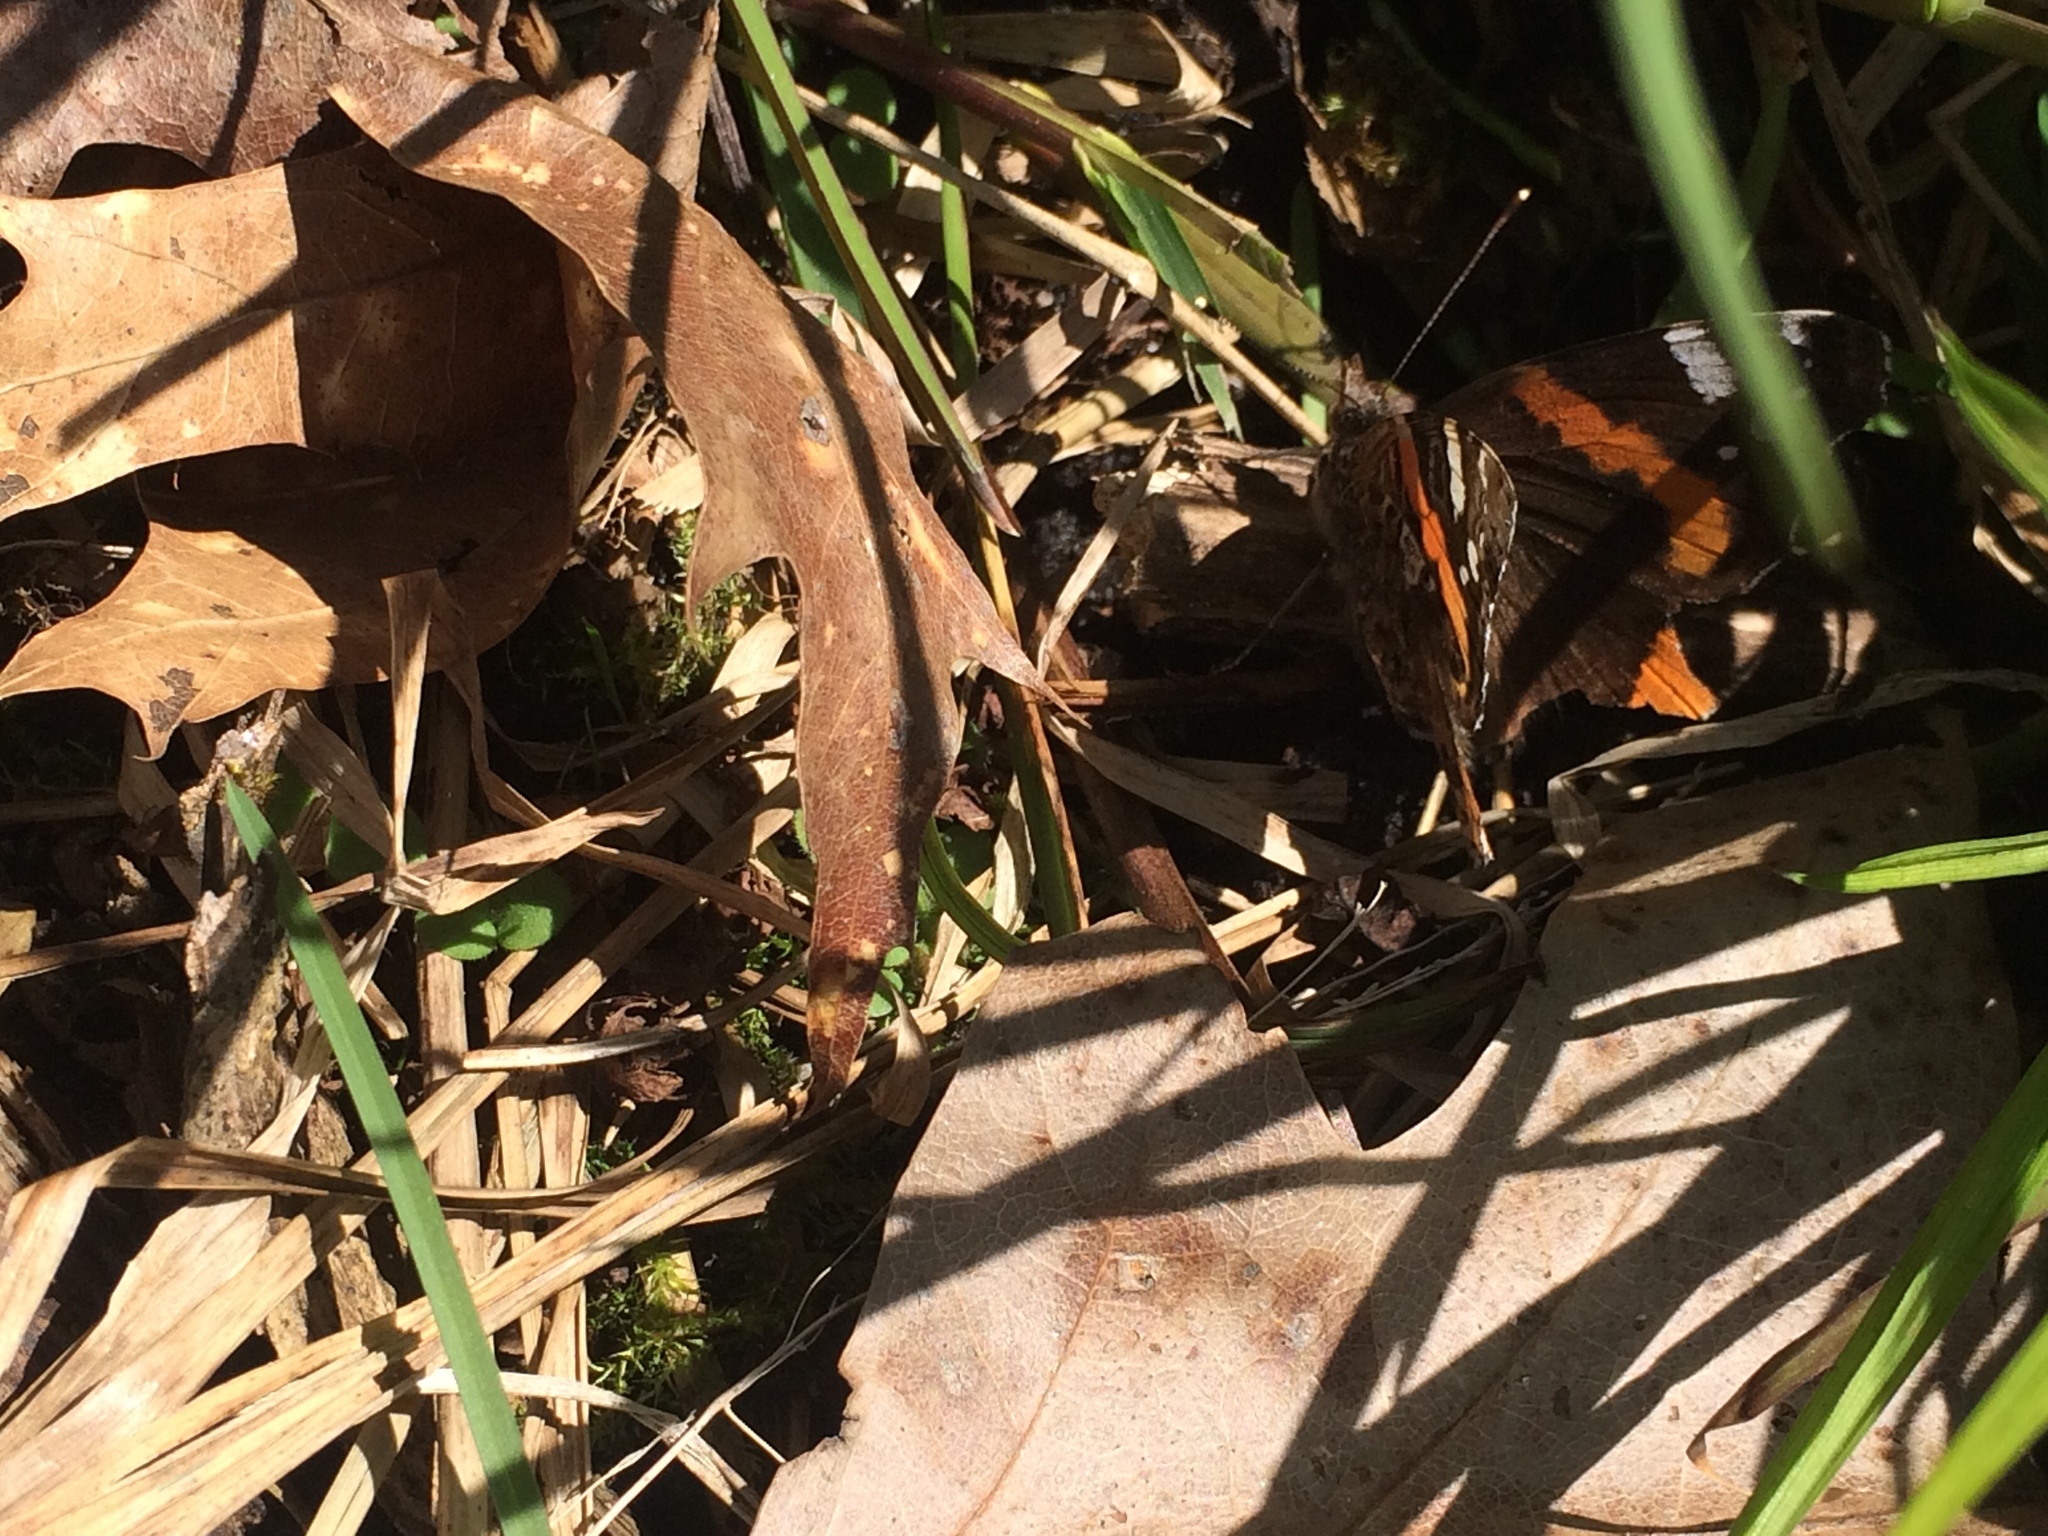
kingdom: Animalia
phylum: Arthropoda
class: Insecta
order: Lepidoptera
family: Nymphalidae
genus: Vanessa
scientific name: Vanessa atalanta
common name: Red admiral
